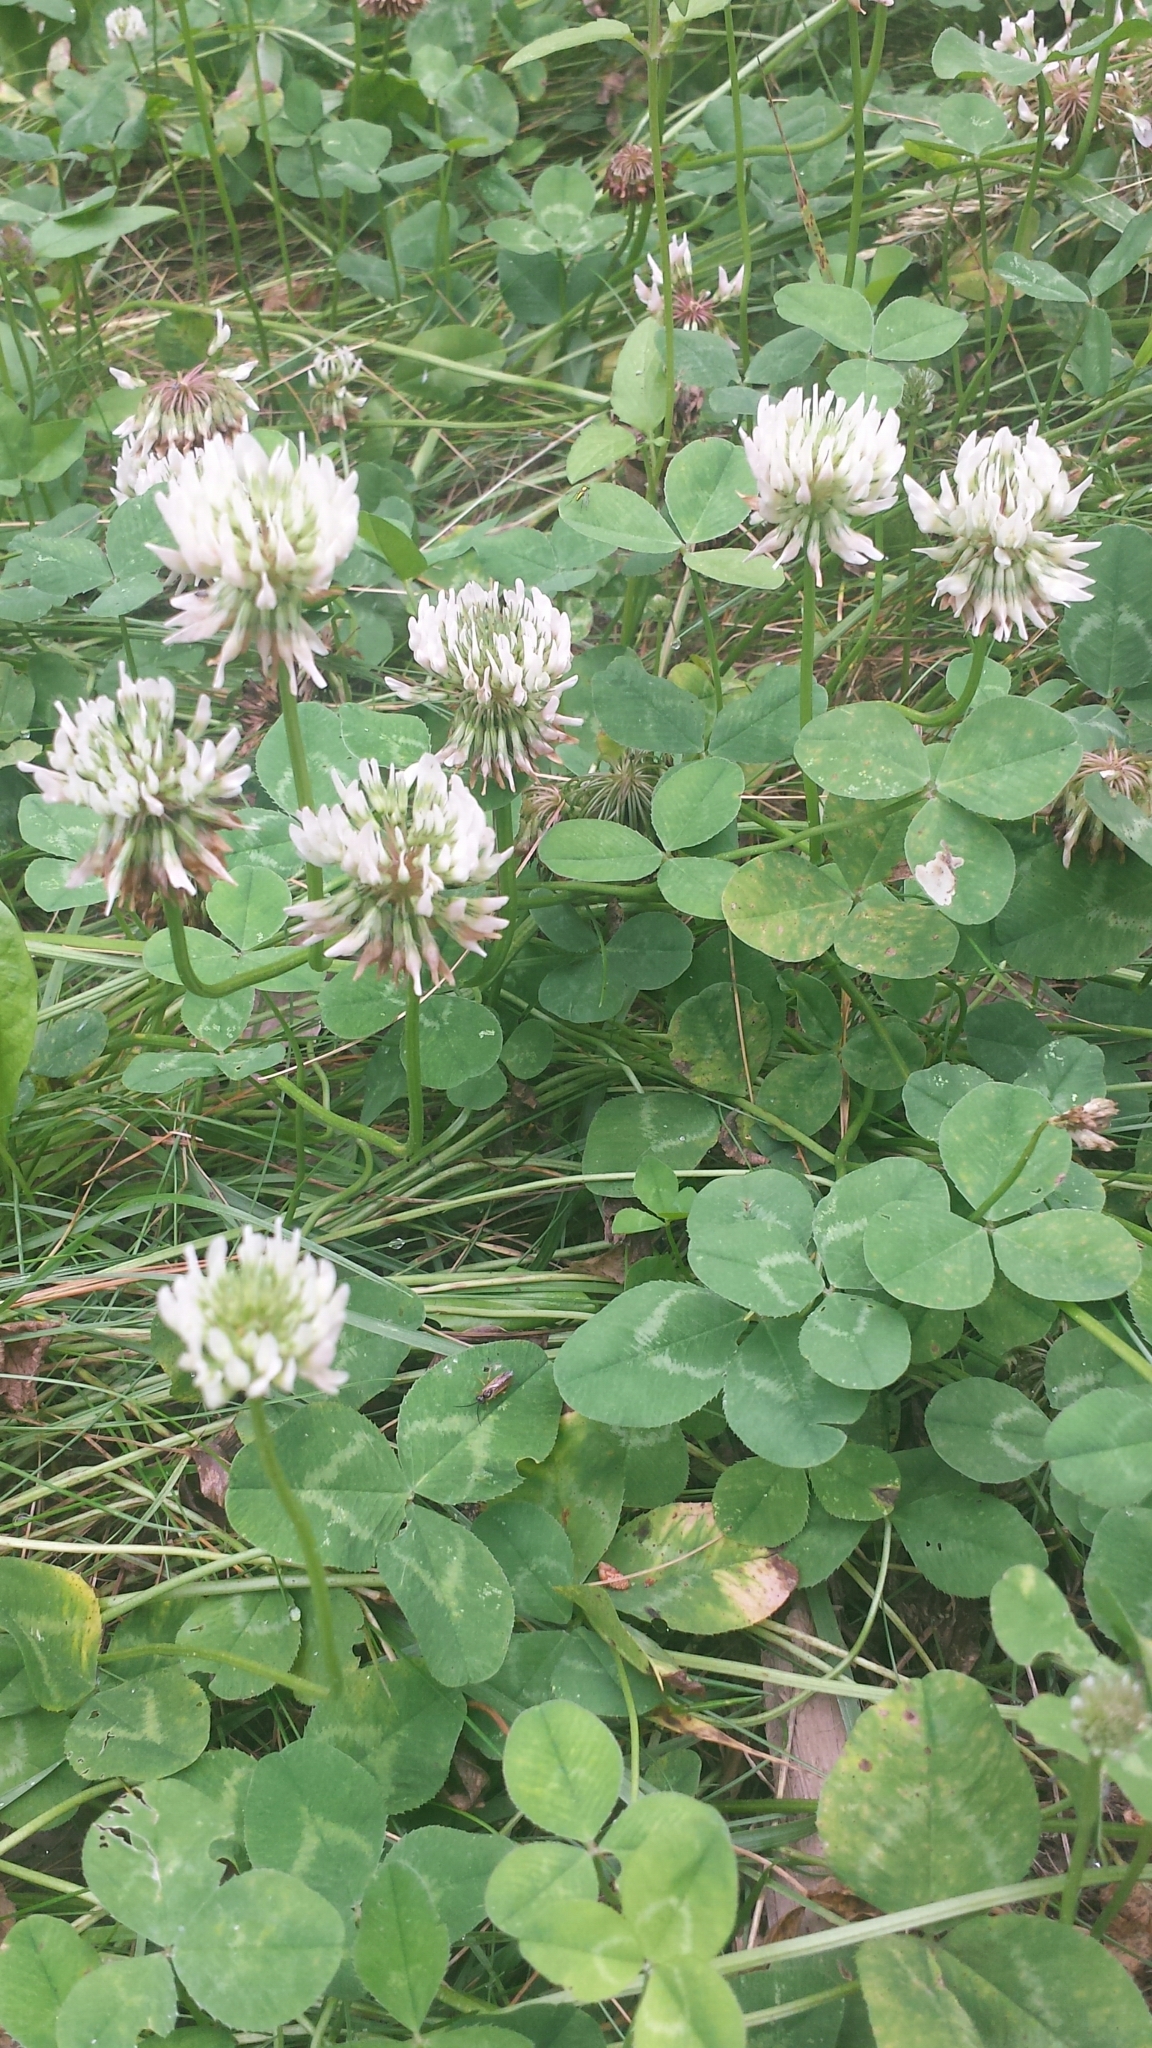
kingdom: Plantae
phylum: Tracheophyta
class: Magnoliopsida
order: Fabales
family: Fabaceae
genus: Trifolium
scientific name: Trifolium repens
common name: White clover
